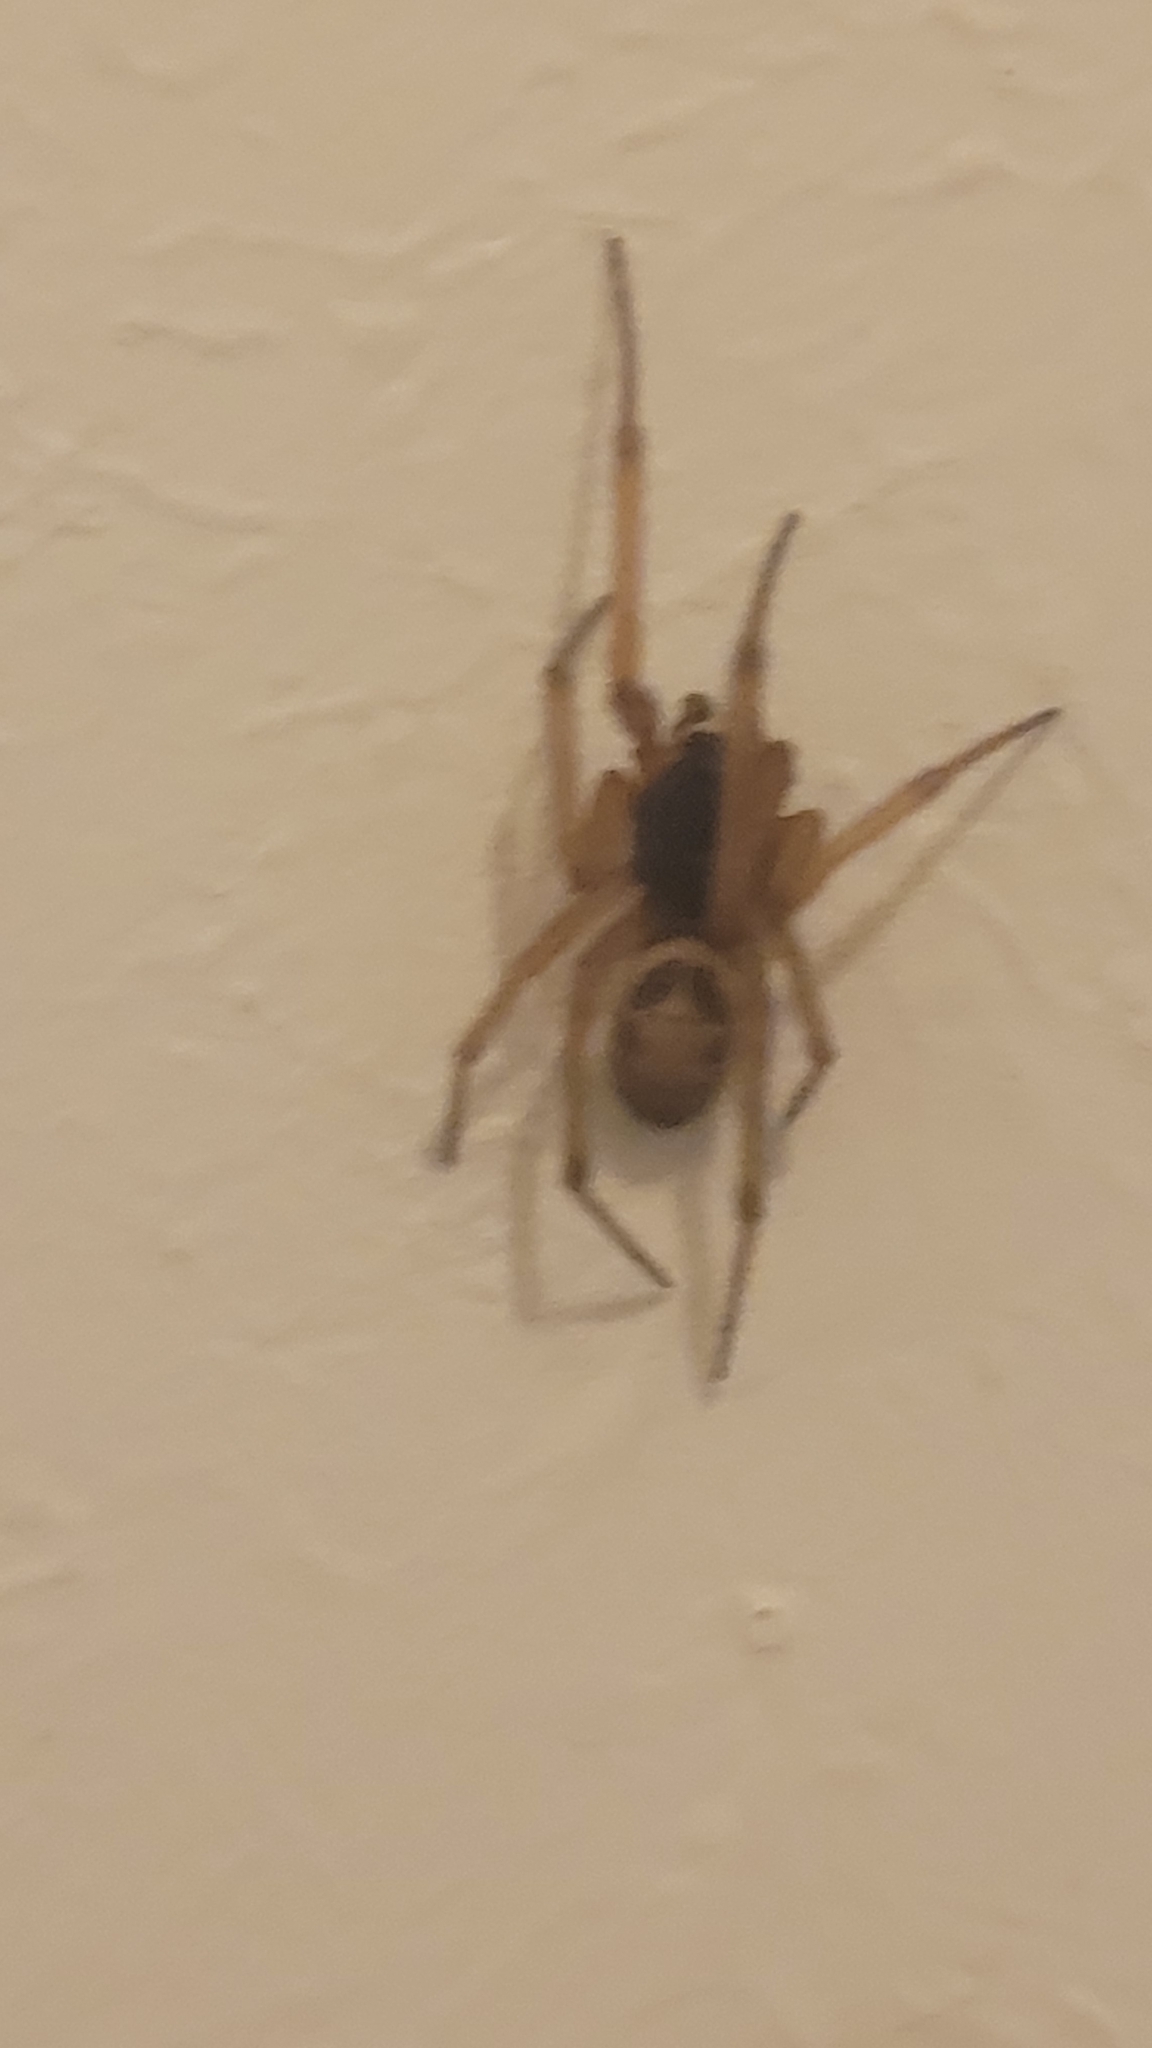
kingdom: Animalia
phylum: Arthropoda
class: Arachnida
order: Araneae
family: Theridiidae
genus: Steatoda
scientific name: Steatoda nobilis
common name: Cobweb weaver
